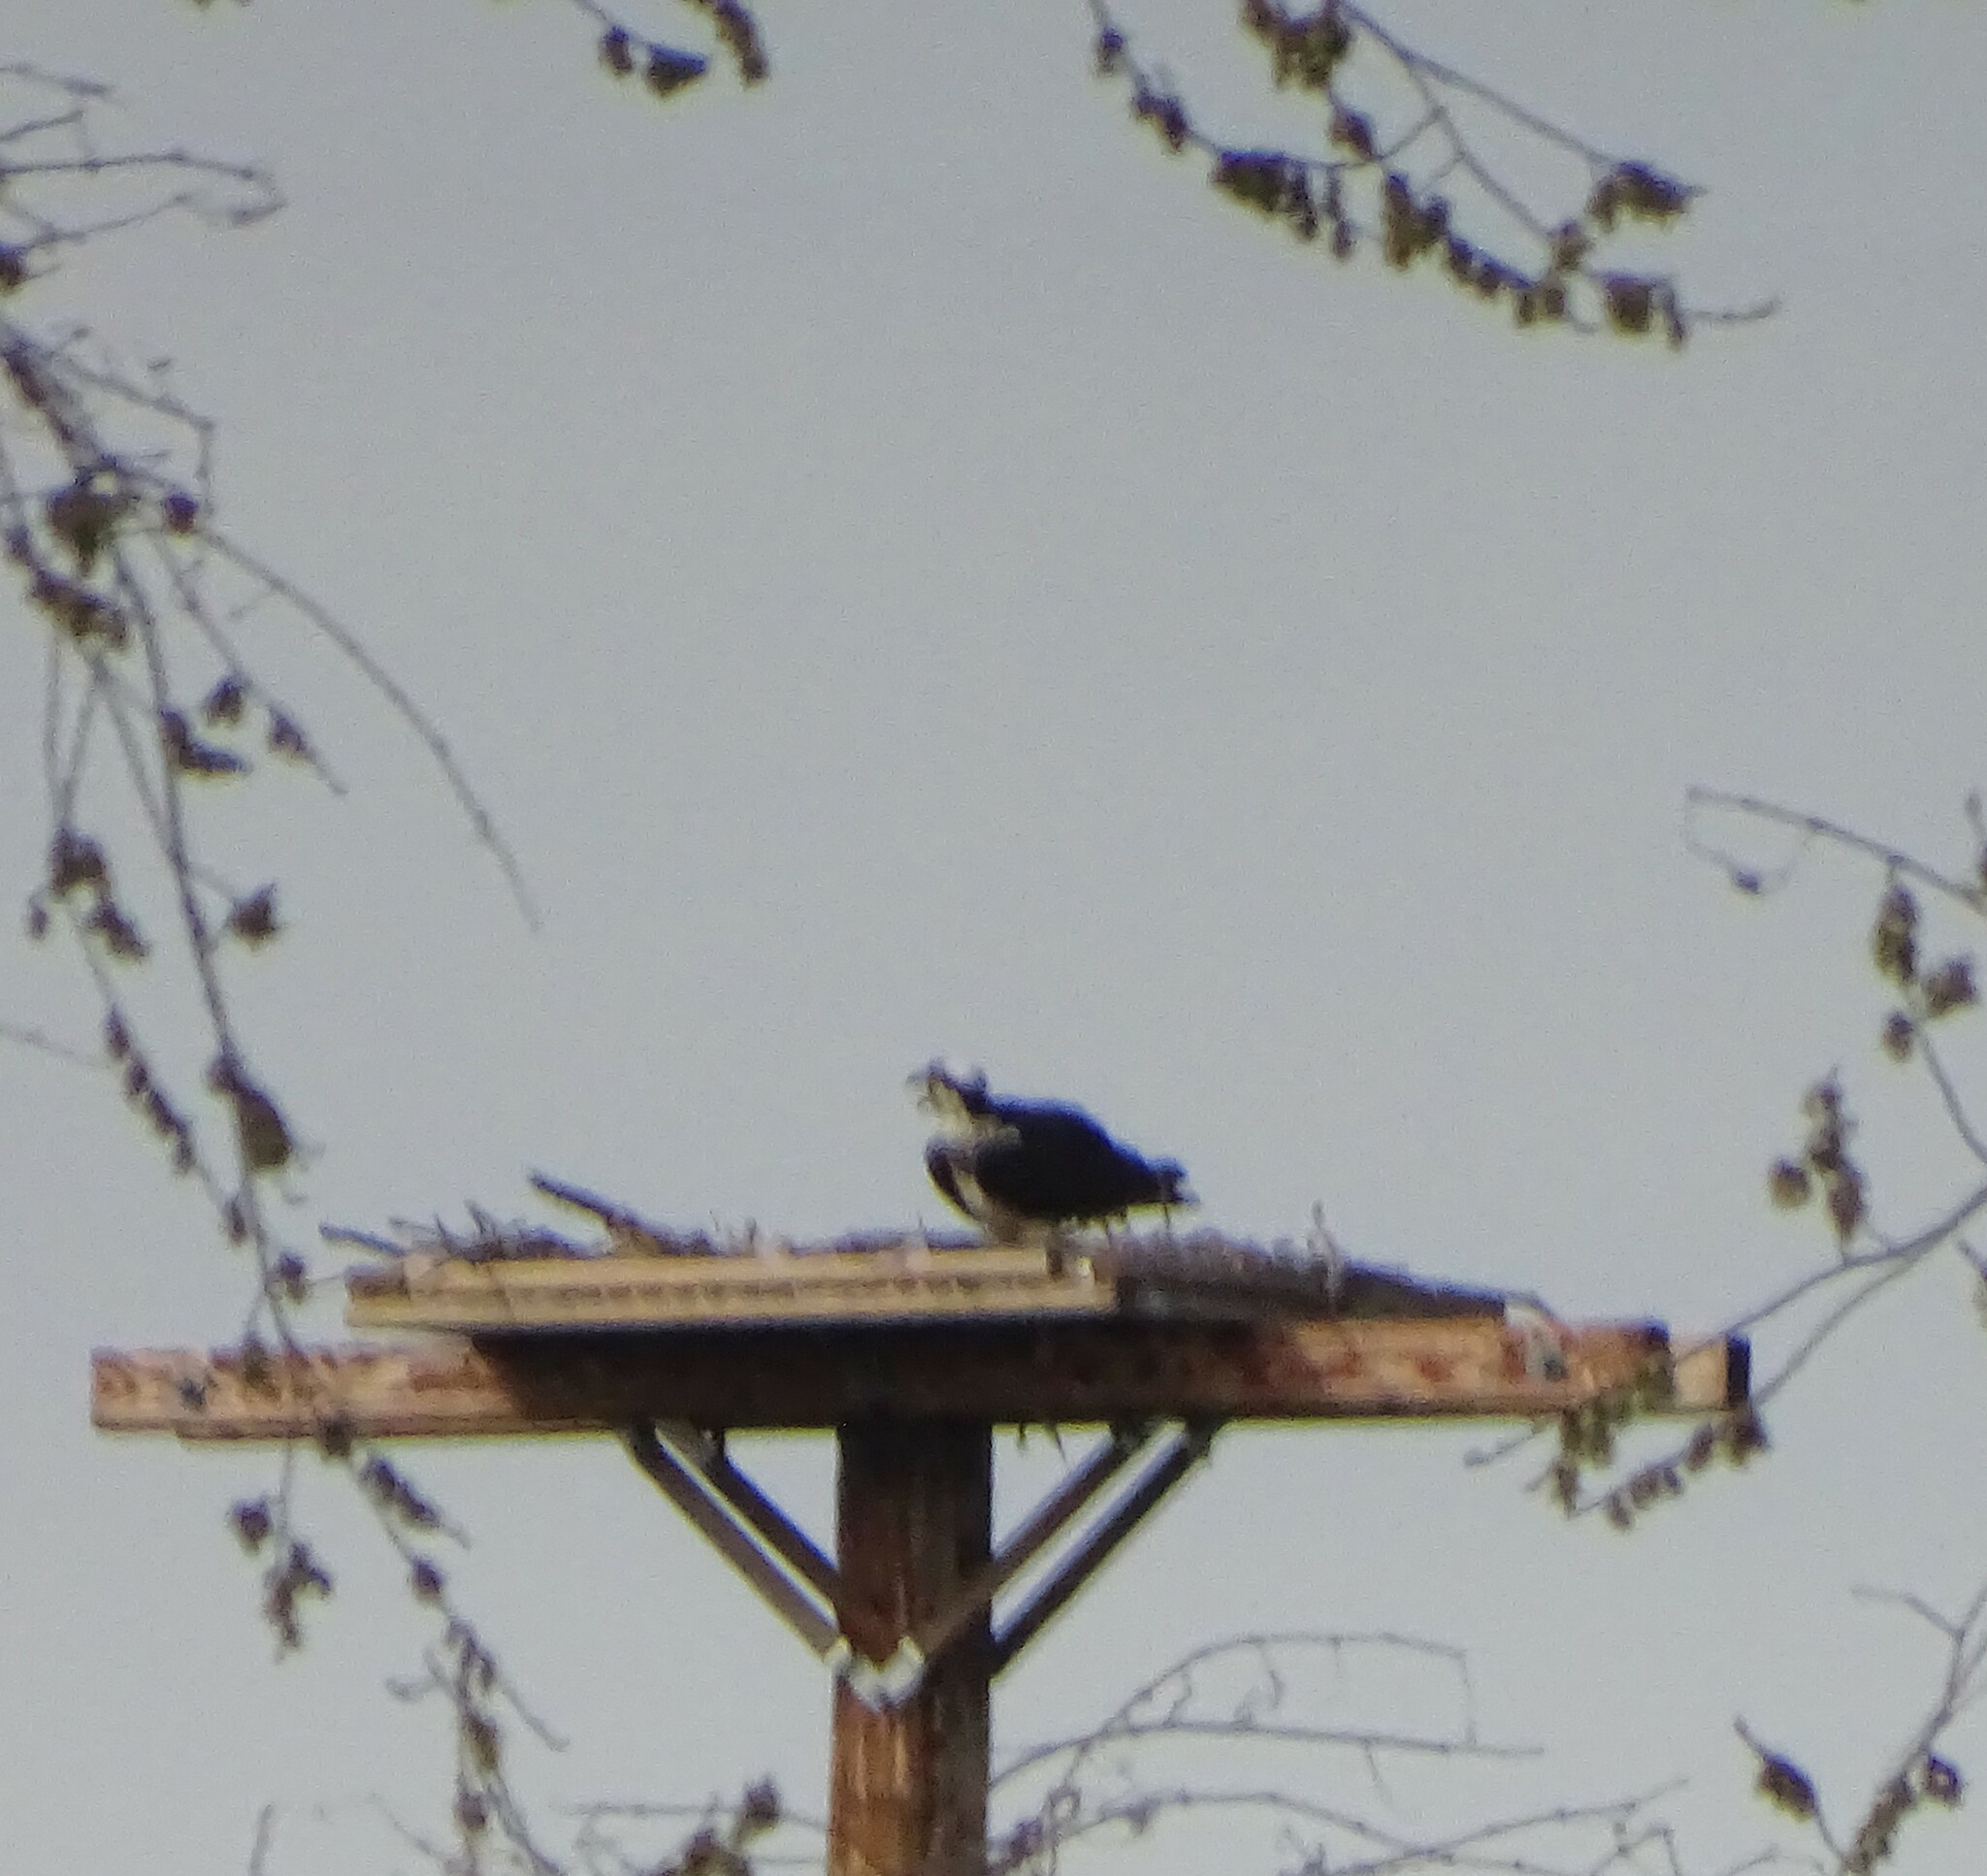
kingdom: Animalia
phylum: Chordata
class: Aves
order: Accipitriformes
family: Pandionidae
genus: Pandion
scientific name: Pandion haliaetus
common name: Osprey
